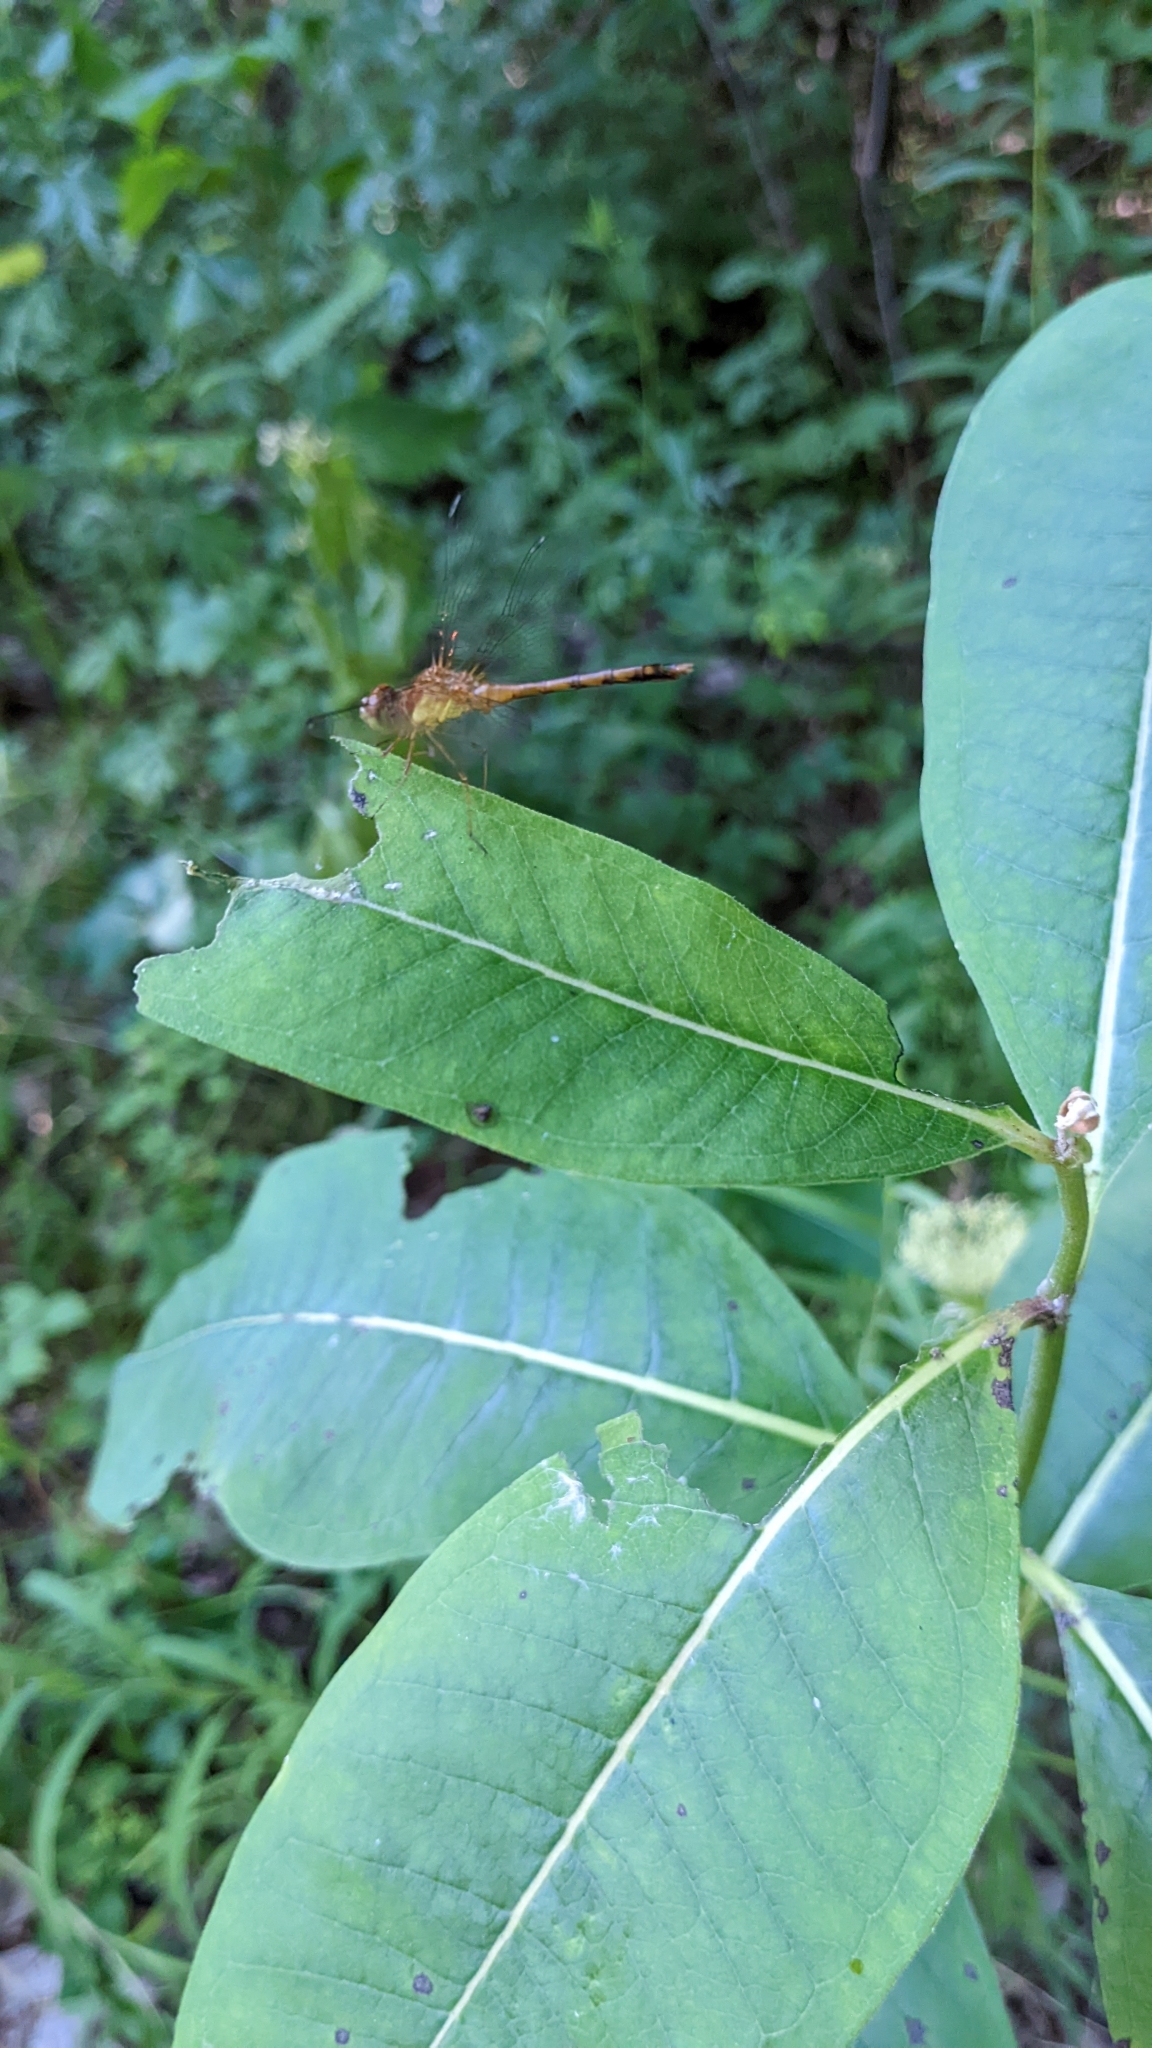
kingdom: Animalia
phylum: Arthropoda
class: Insecta
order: Odonata
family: Libellulidae
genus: Sympetrum
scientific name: Sympetrum vicinum
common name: Autumn meadowhawk
